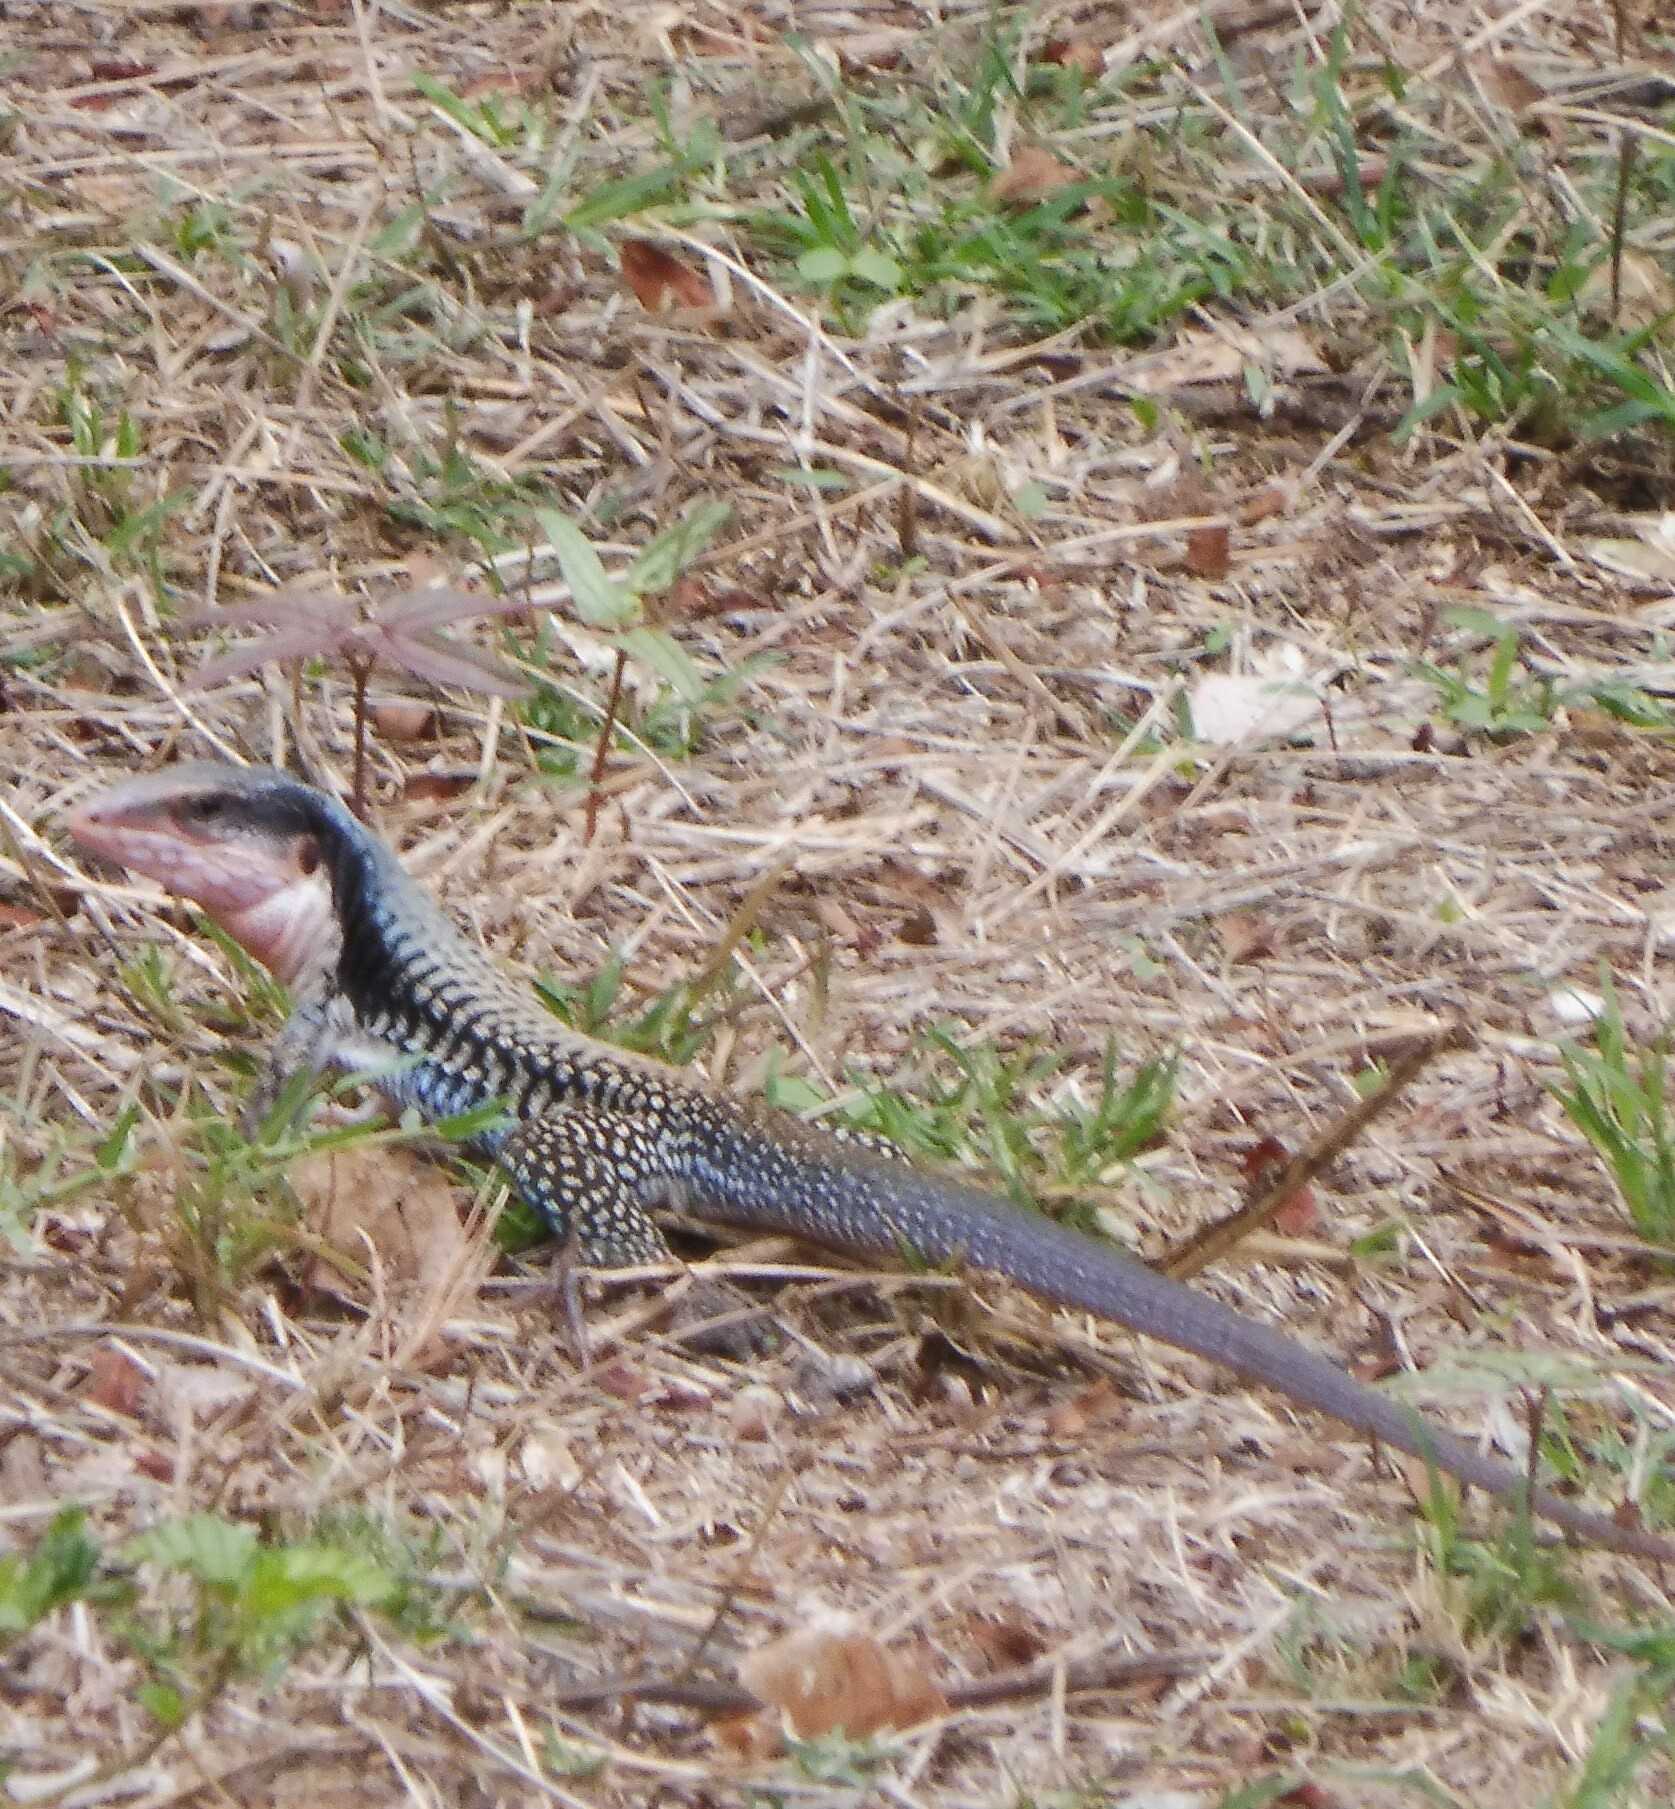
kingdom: Animalia
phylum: Chordata
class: Squamata
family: Teiidae
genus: Aspidoscelis
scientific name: Aspidoscelis sackii
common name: Giant spotted whiptail [gigas]
